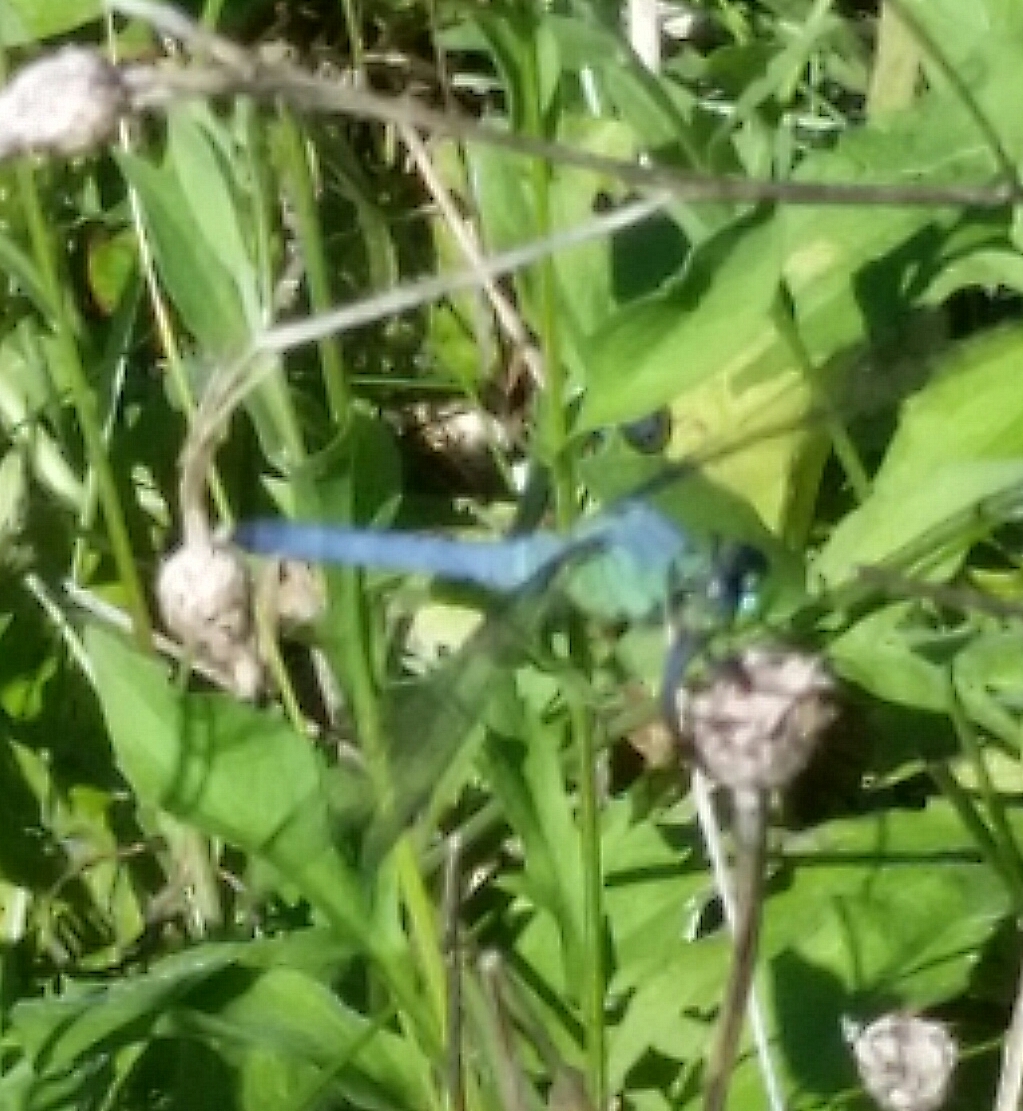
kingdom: Animalia
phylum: Arthropoda
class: Insecta
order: Odonata
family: Libellulidae
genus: Erythemis
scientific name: Erythemis simplicicollis
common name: Eastern pondhawk
